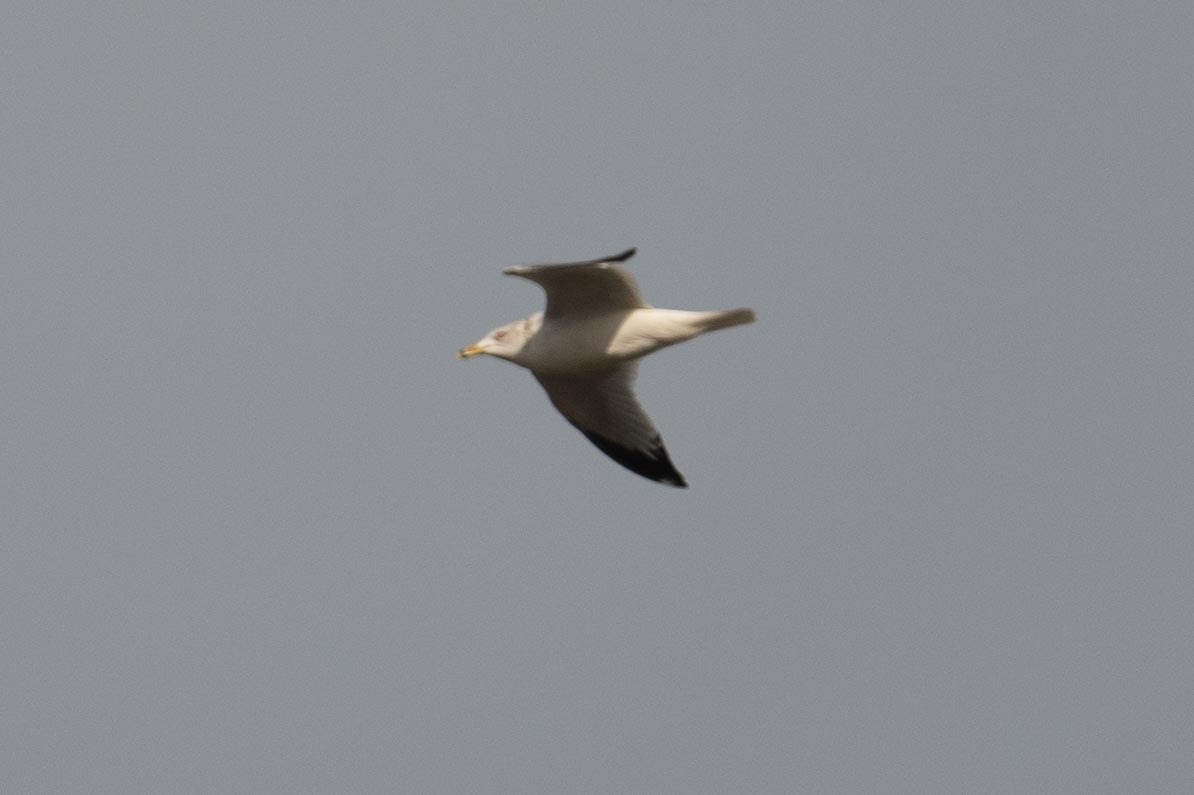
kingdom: Animalia
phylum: Chordata
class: Aves
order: Charadriiformes
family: Laridae
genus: Larus
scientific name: Larus delawarensis
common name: Ring-billed gull
